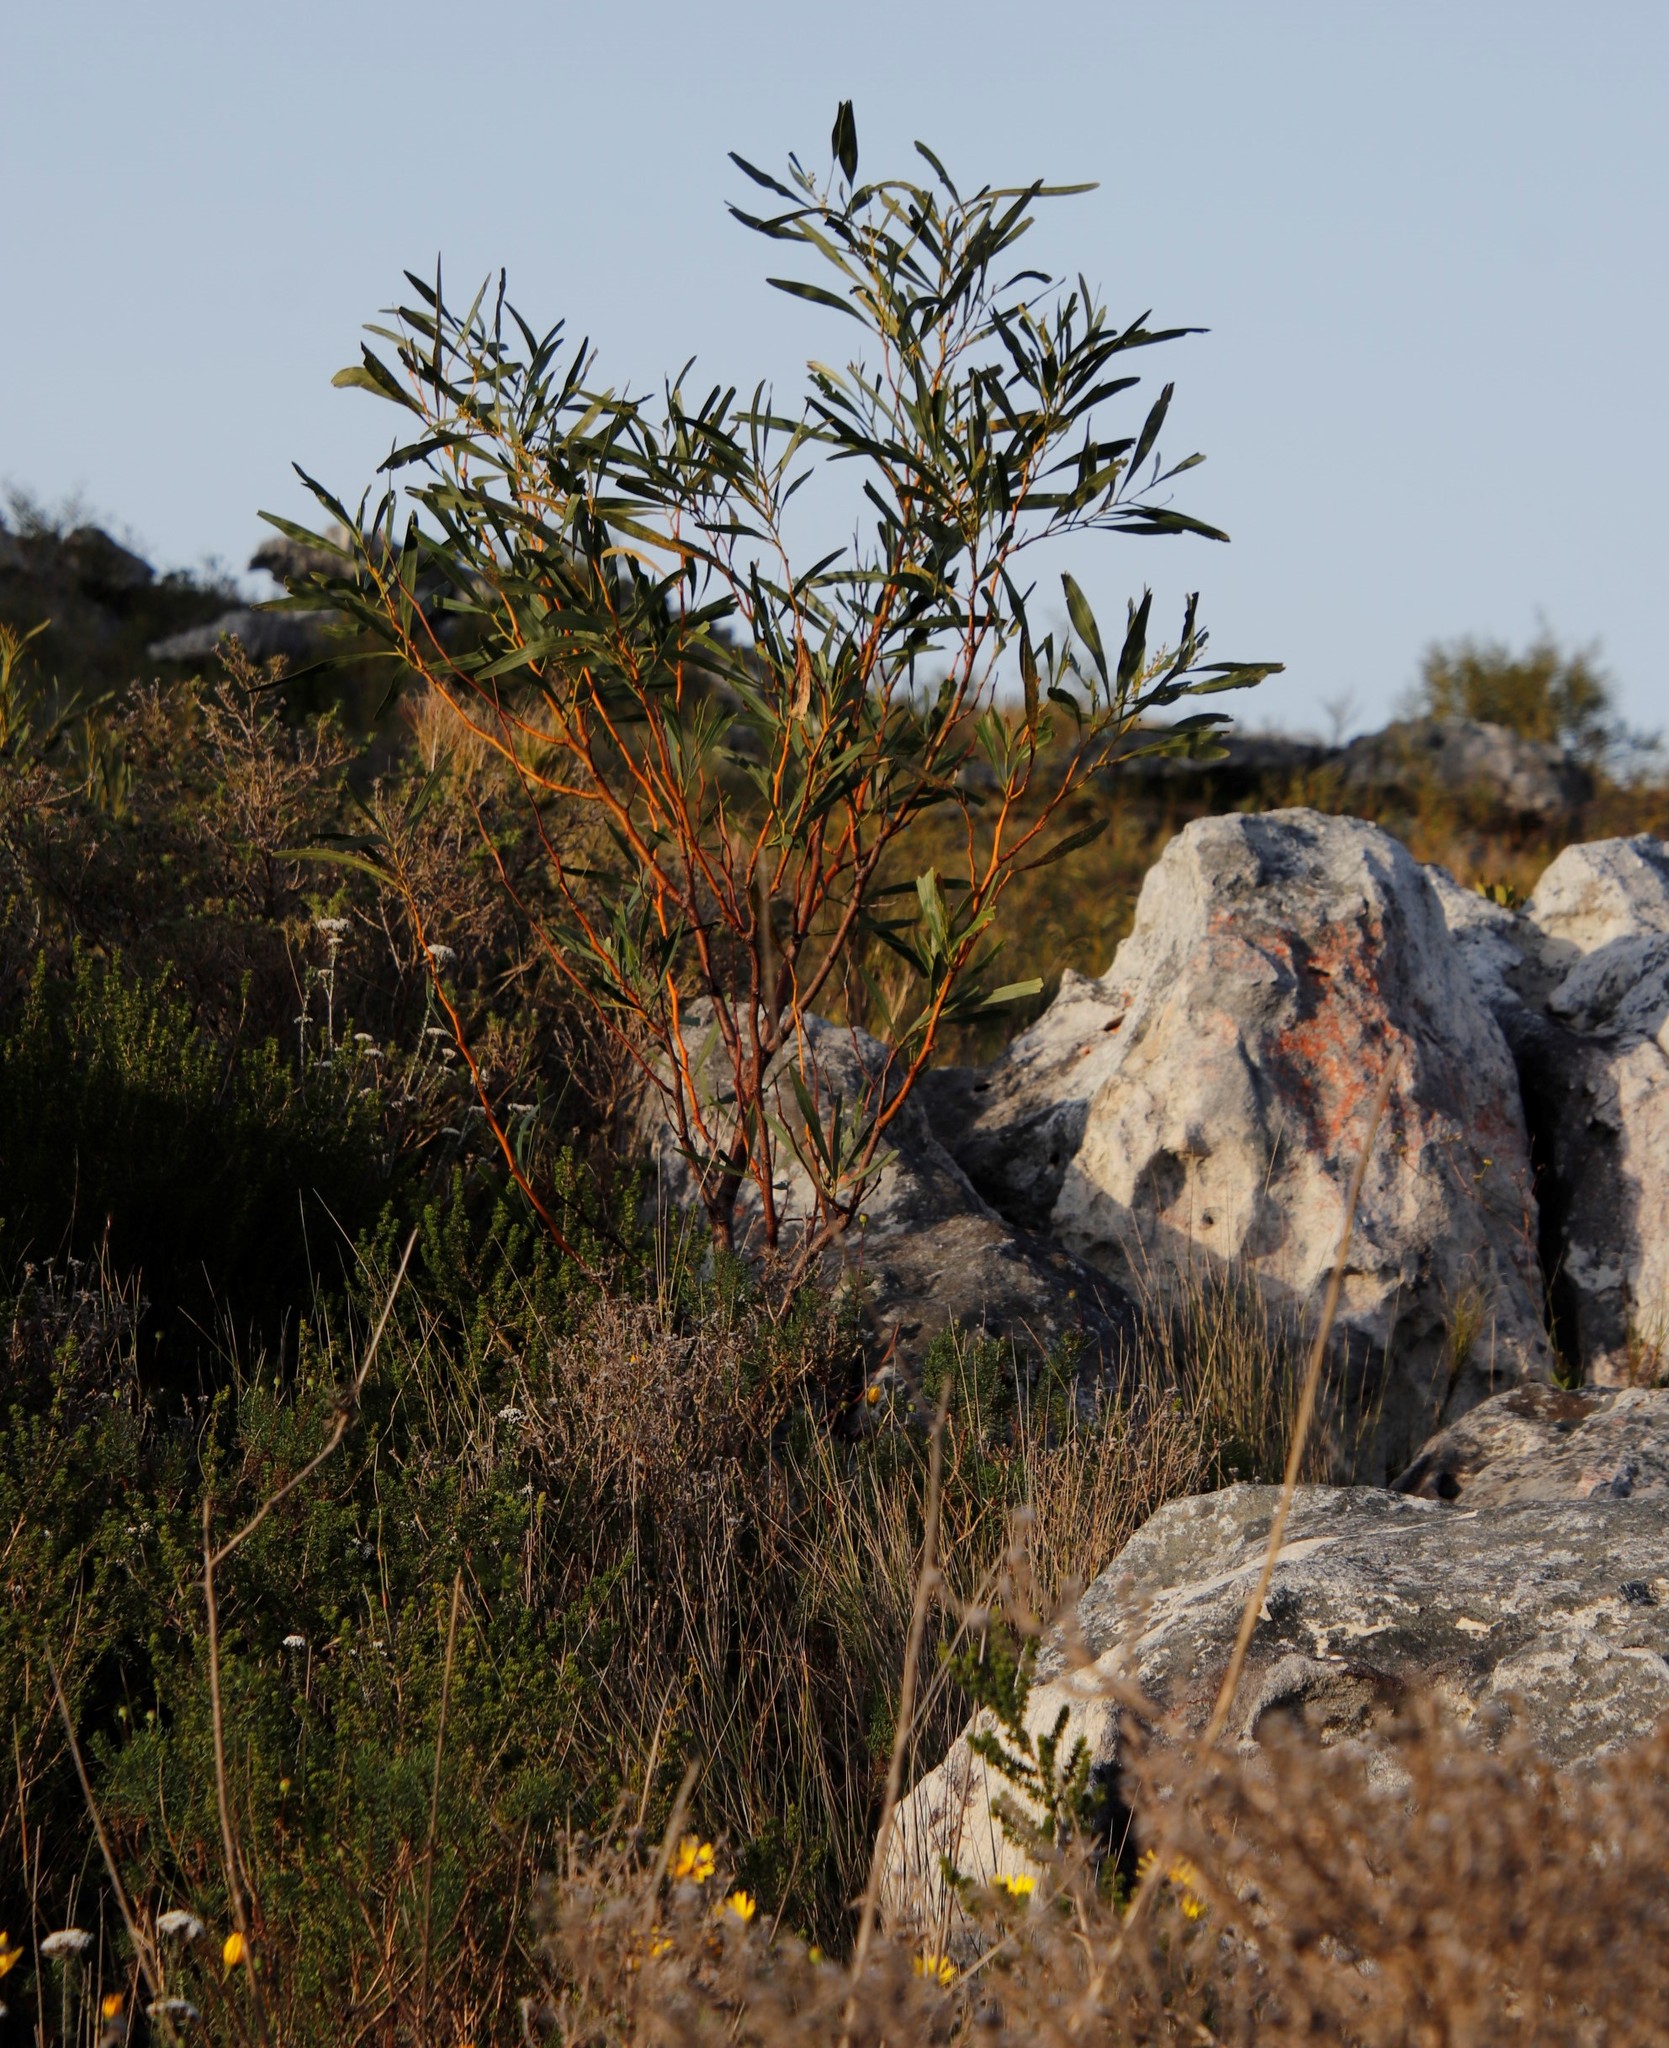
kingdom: Plantae
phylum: Tracheophyta
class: Magnoliopsida
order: Fabales
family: Fabaceae
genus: Acacia
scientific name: Acacia saligna
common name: Orange wattle
